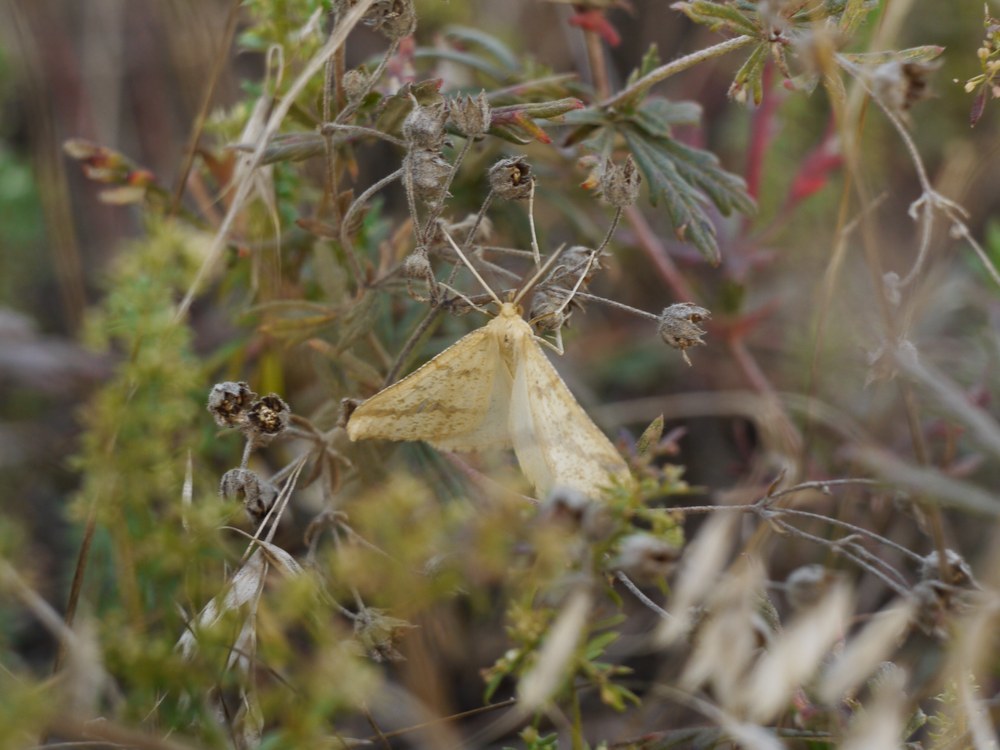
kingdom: Animalia
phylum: Arthropoda
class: Insecta
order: Lepidoptera
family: Geometridae
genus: Aspitates
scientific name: Aspitates ochrearia
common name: Yellow belle
